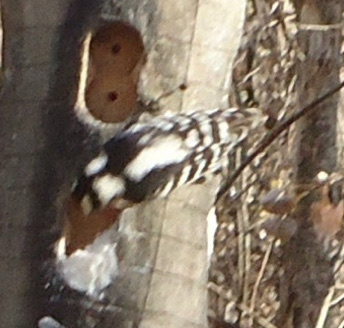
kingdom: Animalia
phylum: Chordata
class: Aves
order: Piciformes
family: Picidae
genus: Dryobates
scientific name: Dryobates pubescens
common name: Downy woodpecker
